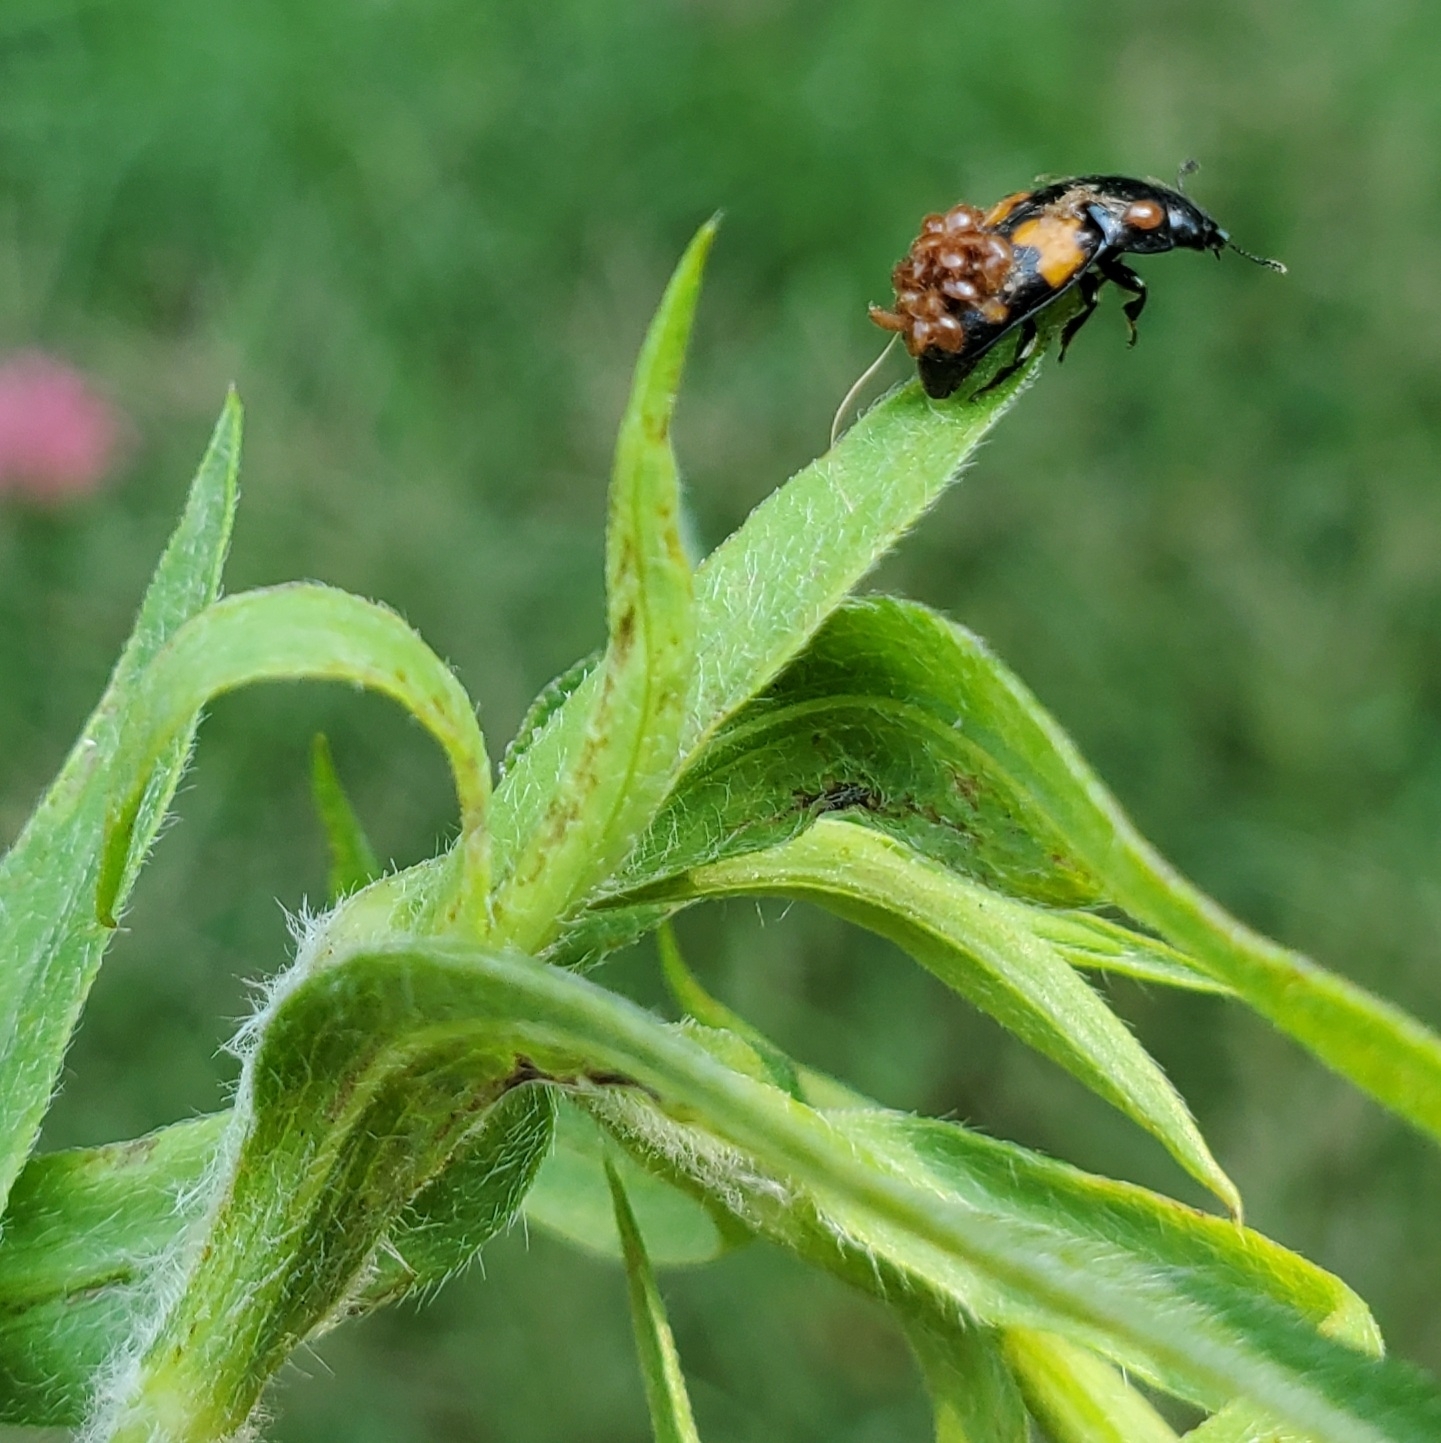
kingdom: Animalia
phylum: Arthropoda
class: Insecta
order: Coleoptera
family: Nitidulidae
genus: Glischrochilus
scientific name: Glischrochilus fasciatus
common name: Picnic beetle
